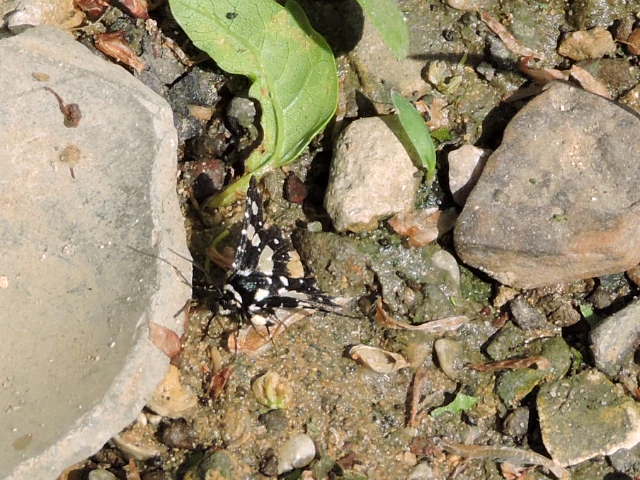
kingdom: Animalia
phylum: Arthropoda
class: Insecta
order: Lepidoptera
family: Thyrididae
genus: Pseudothyris
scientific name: Pseudothyris sepulchralis
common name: Mournful thyris moth
